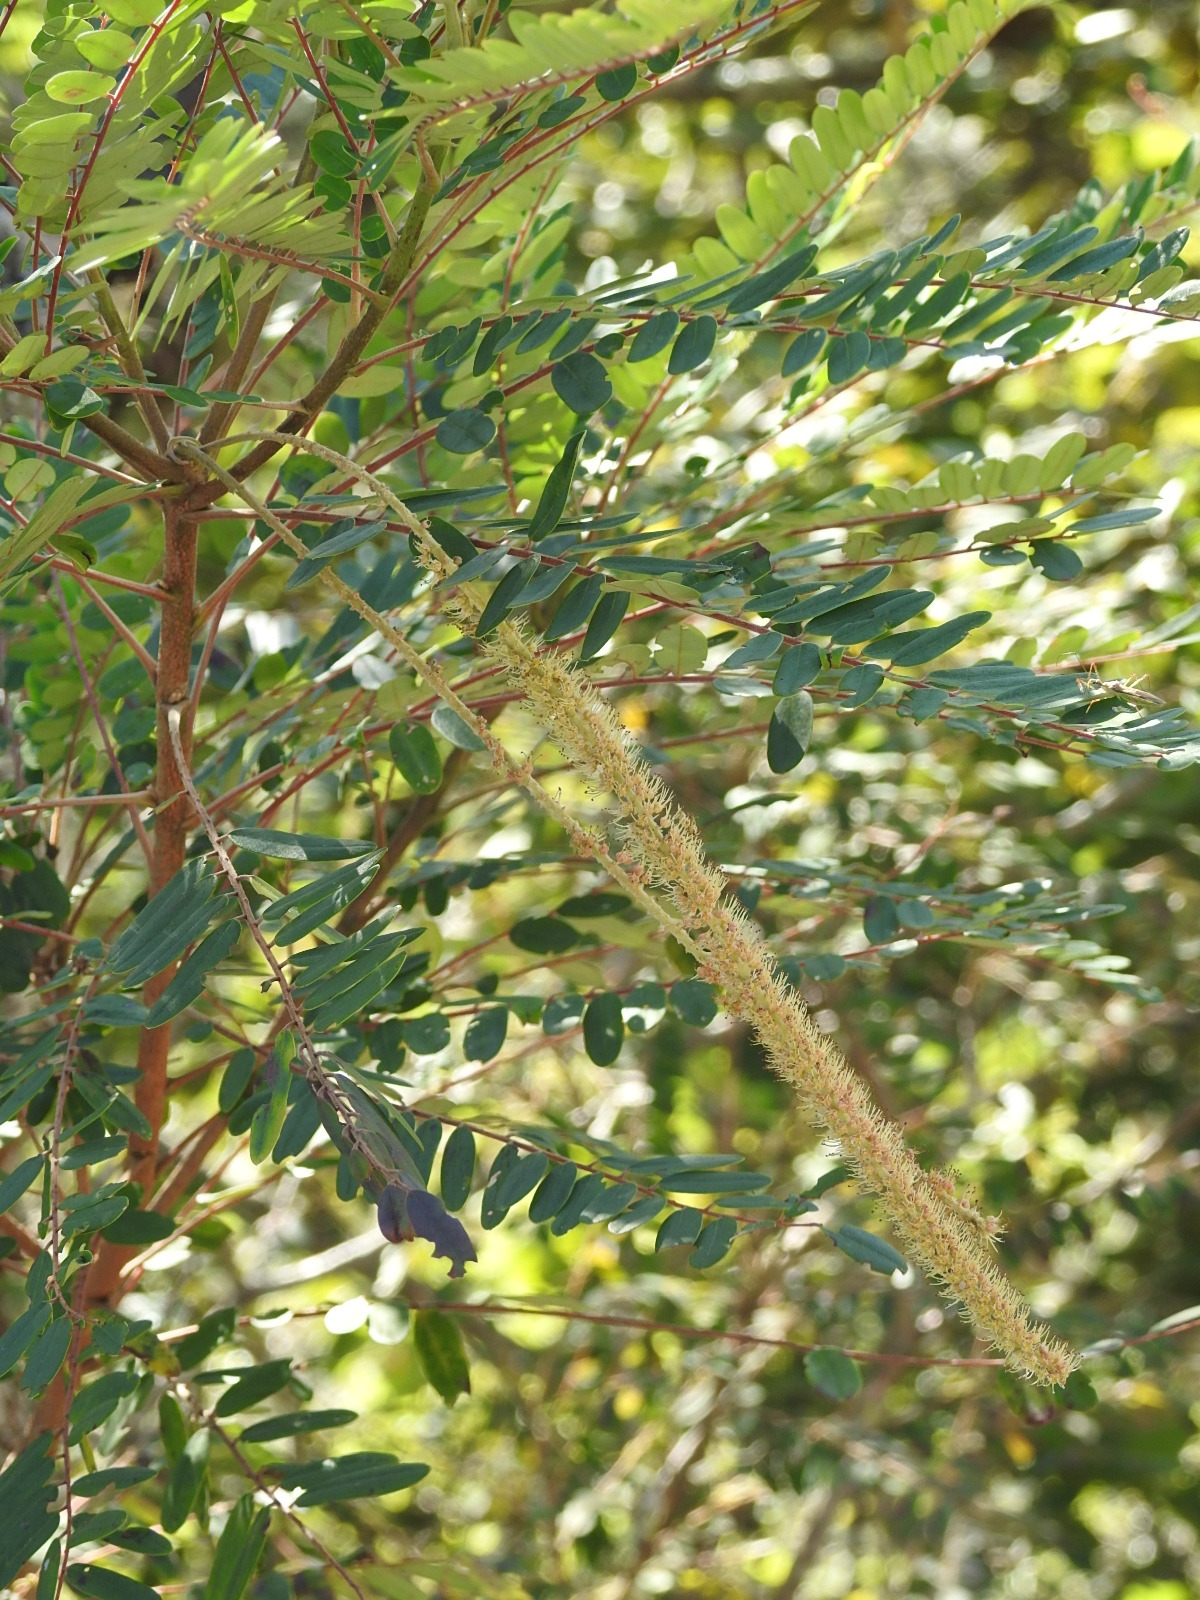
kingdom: Plantae
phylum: Tracheophyta
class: Magnoliopsida
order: Picramniales
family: Picramniaceae
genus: Alvaradoa
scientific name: Alvaradoa amorphoides
